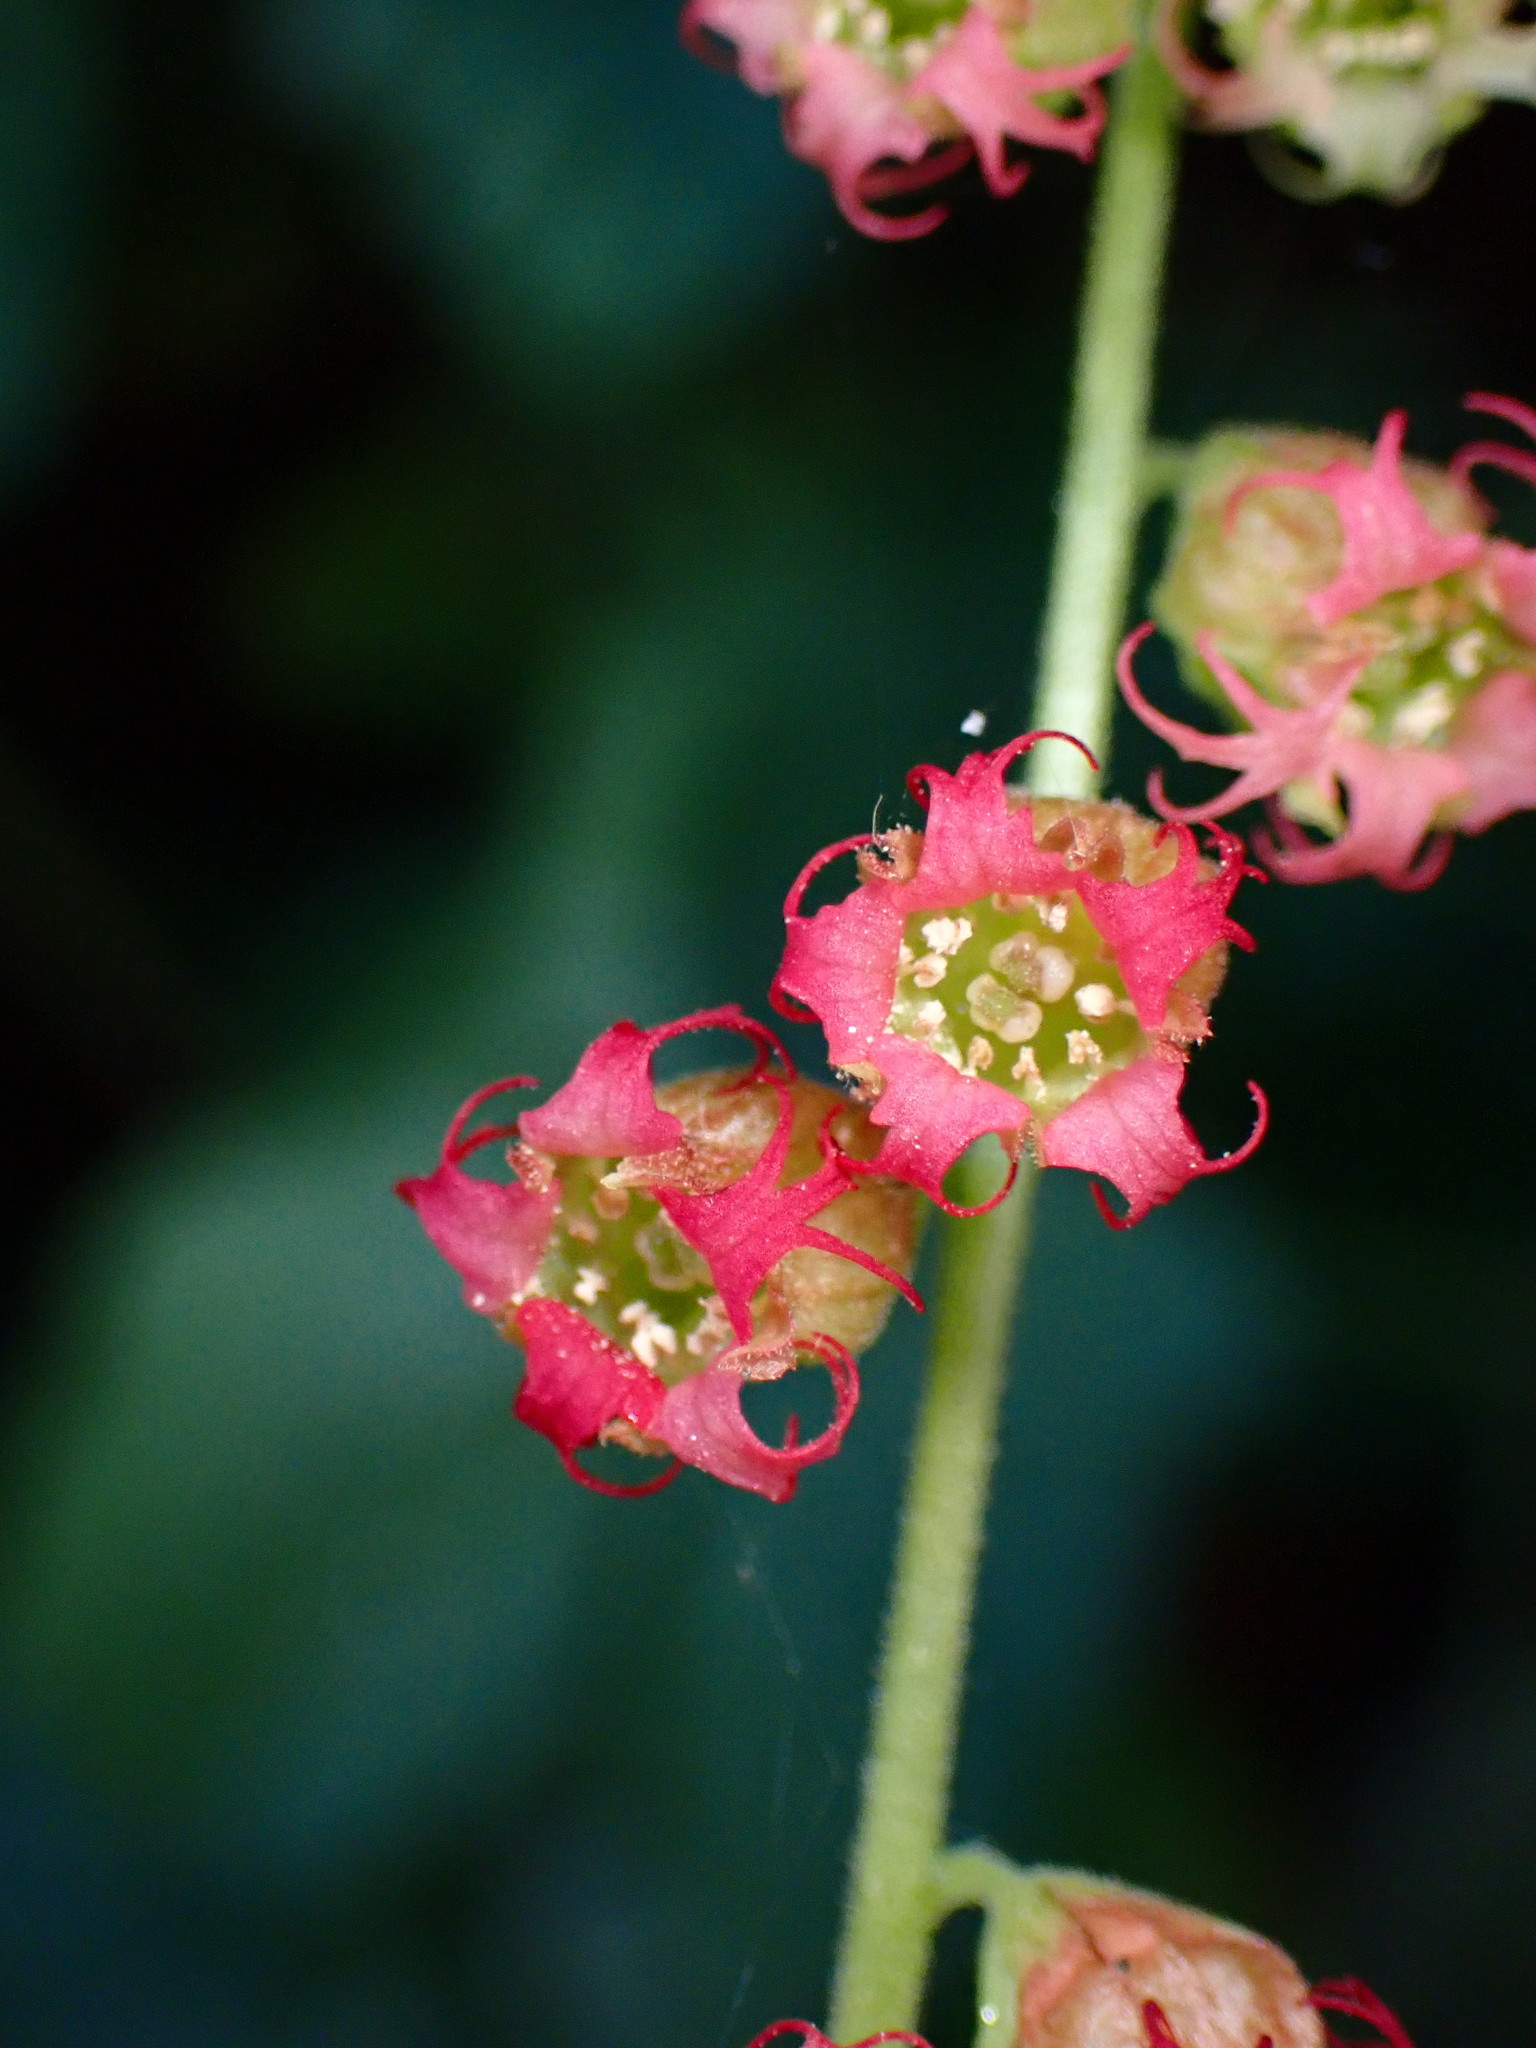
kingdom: Plantae
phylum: Tracheophyta
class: Magnoliopsida
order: Saxifragales
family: Saxifragaceae
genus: Tellima
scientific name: Tellima grandiflora
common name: Fringecups
